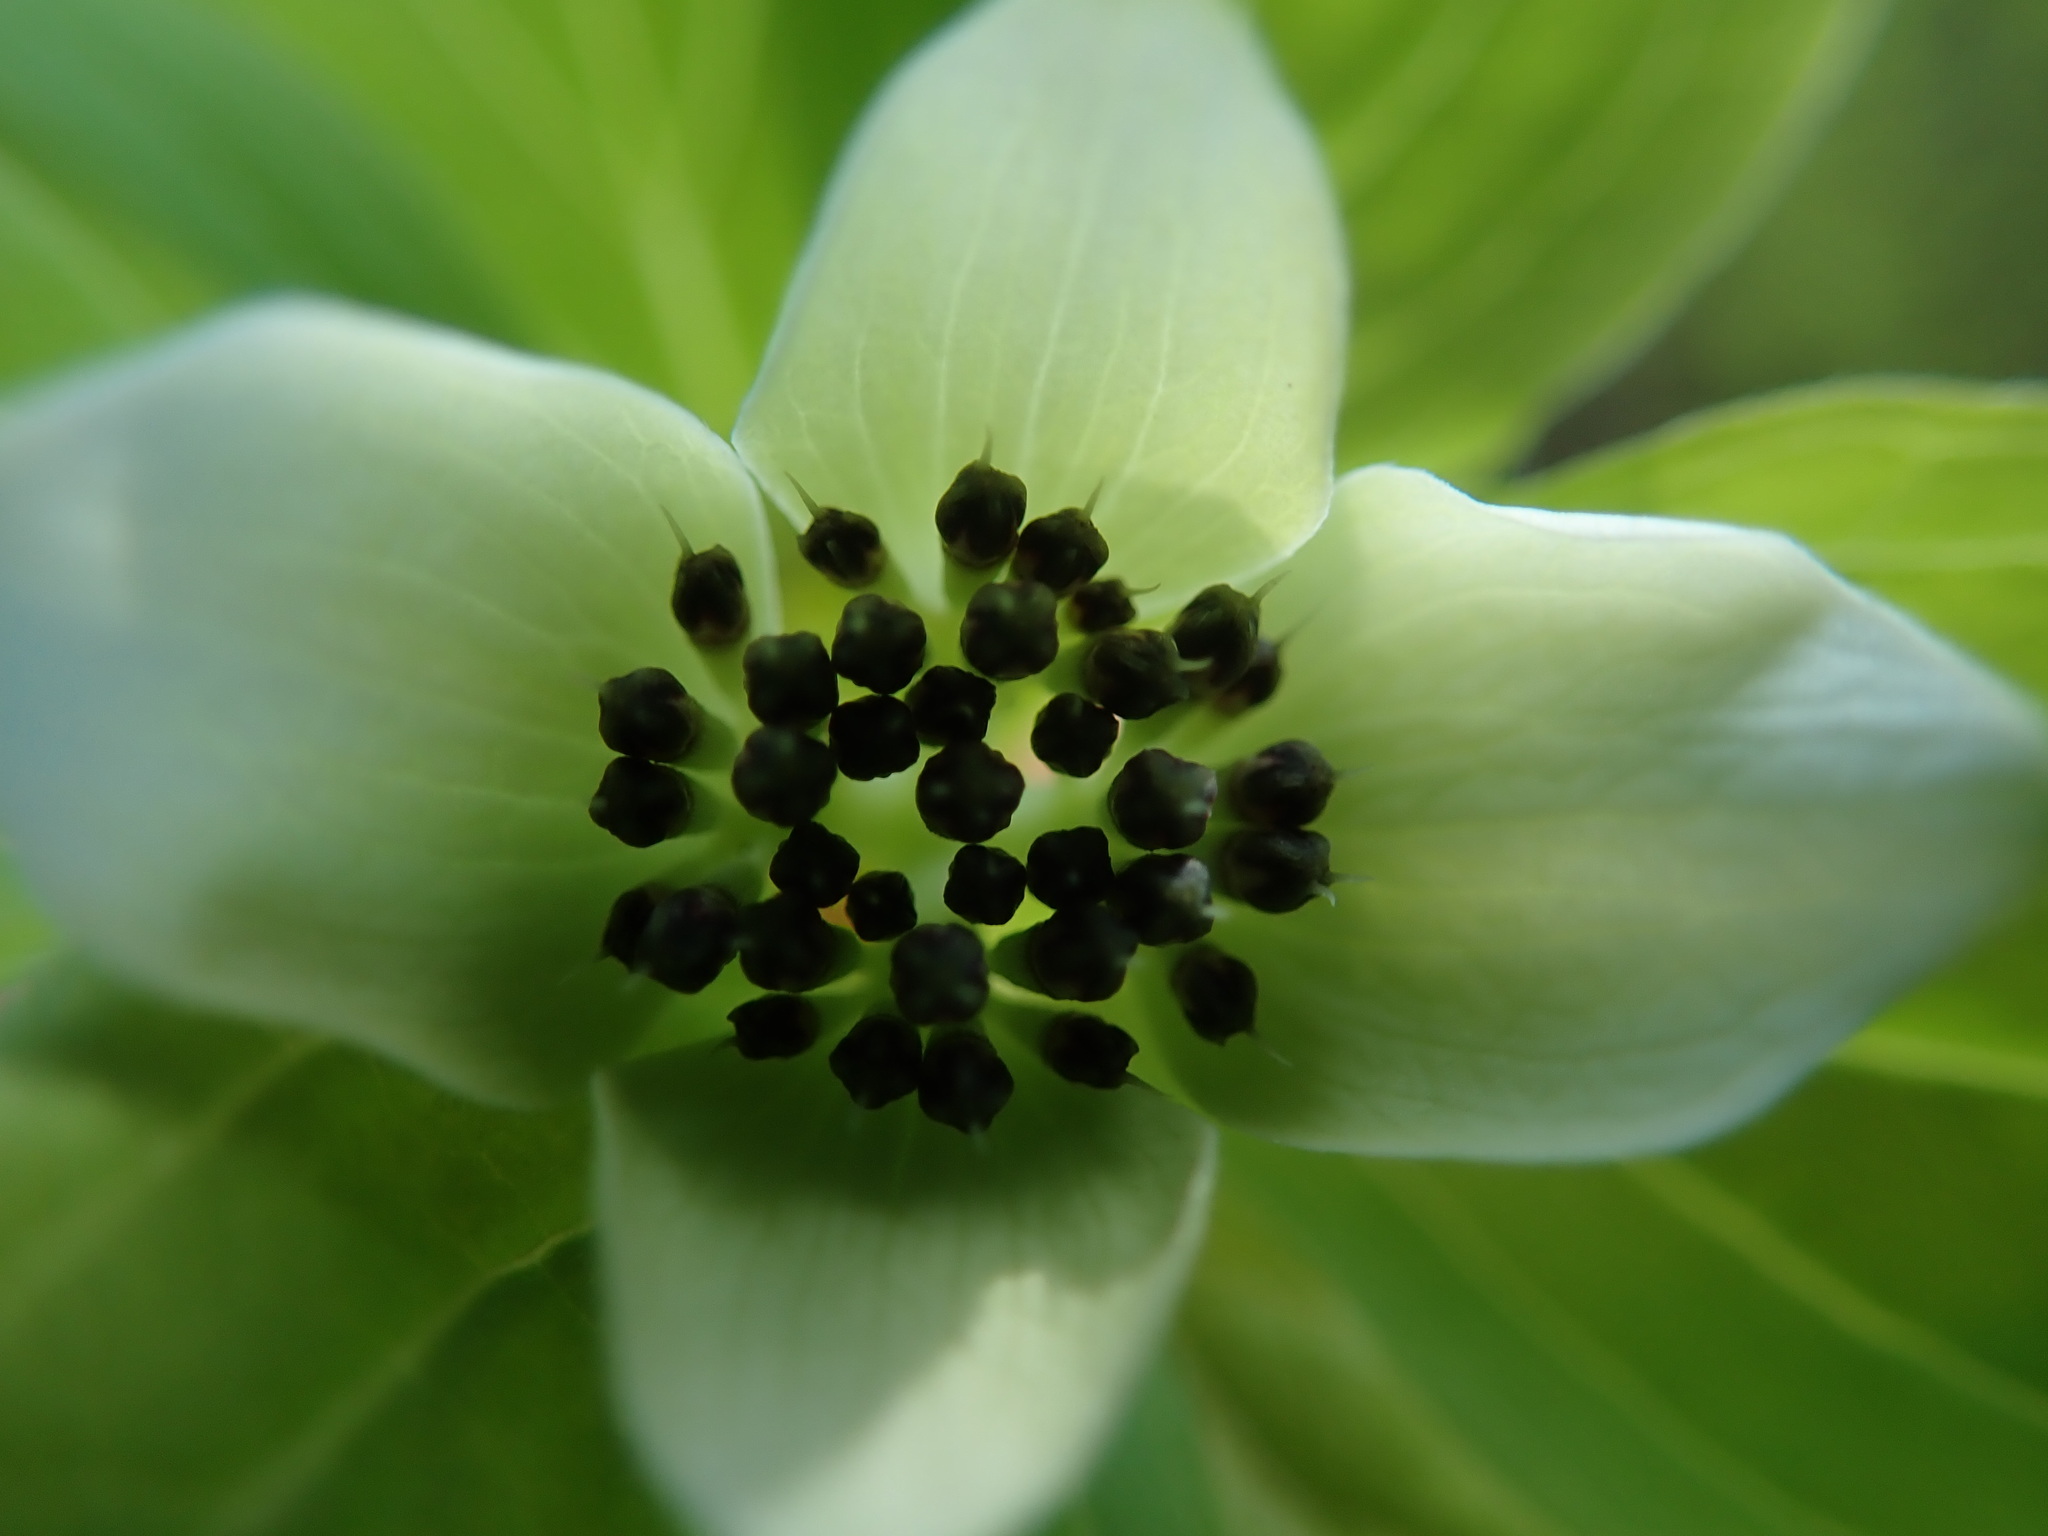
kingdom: Plantae
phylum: Tracheophyta
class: Magnoliopsida
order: Cornales
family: Cornaceae
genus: Cornus
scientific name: Cornus unalaschkensis
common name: Alaska bunchberry
